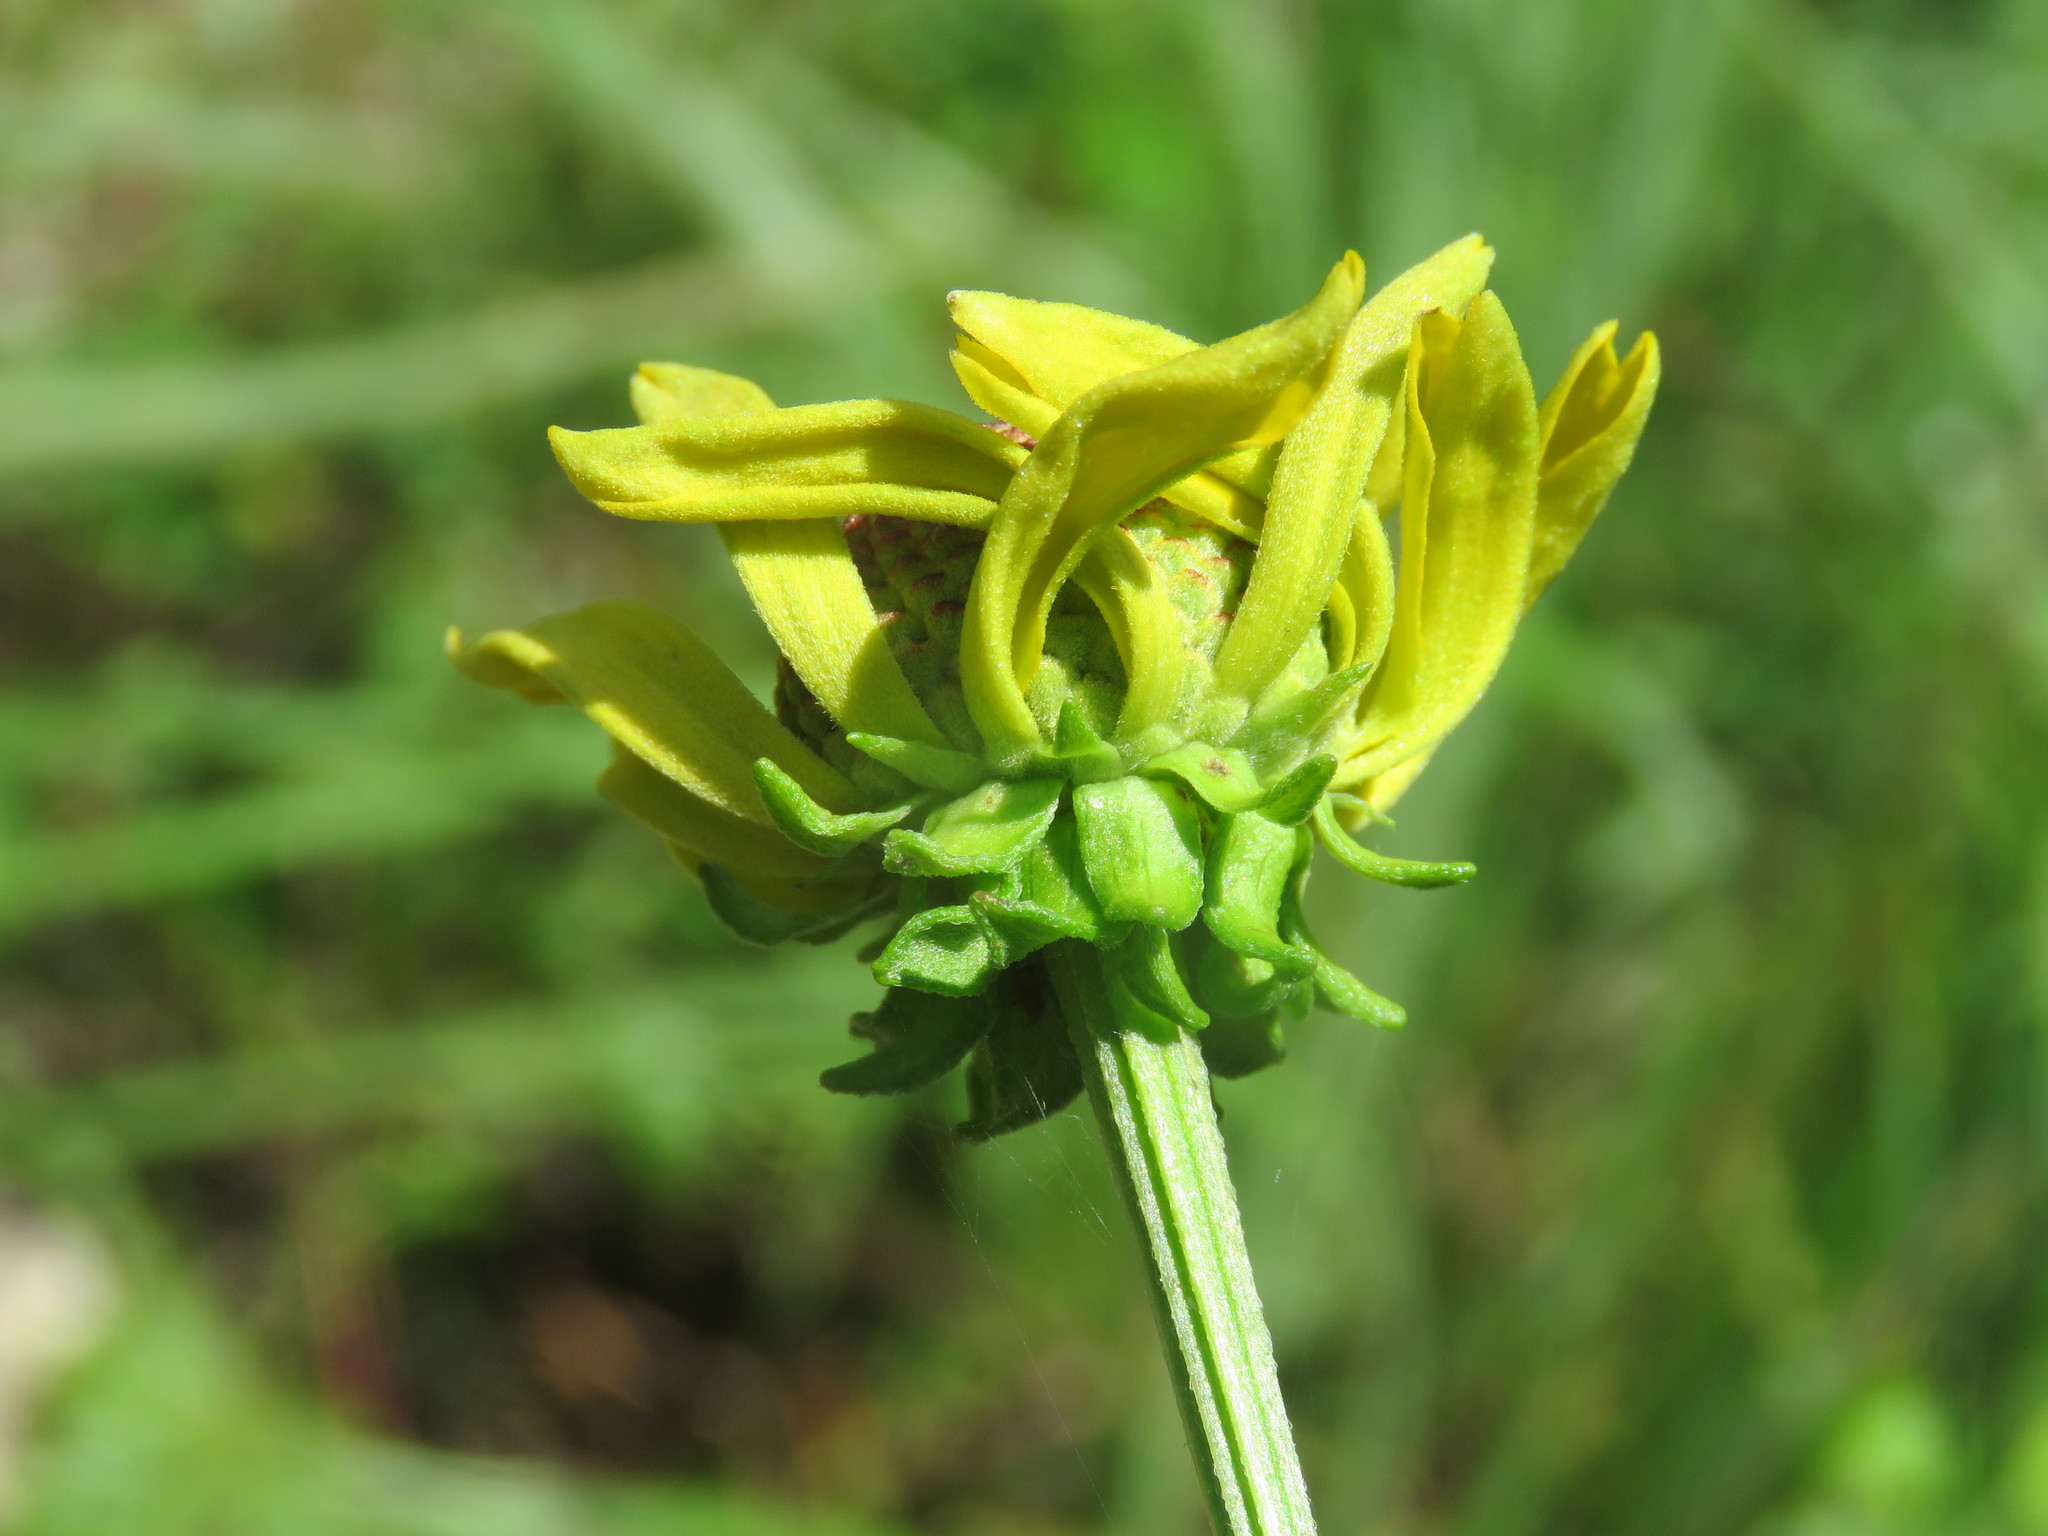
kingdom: Plantae
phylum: Tracheophyta
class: Magnoliopsida
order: Asterales
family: Asteraceae
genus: Rudbeckia
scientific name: Rudbeckia grandiflora
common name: Large-flowered coneflower
